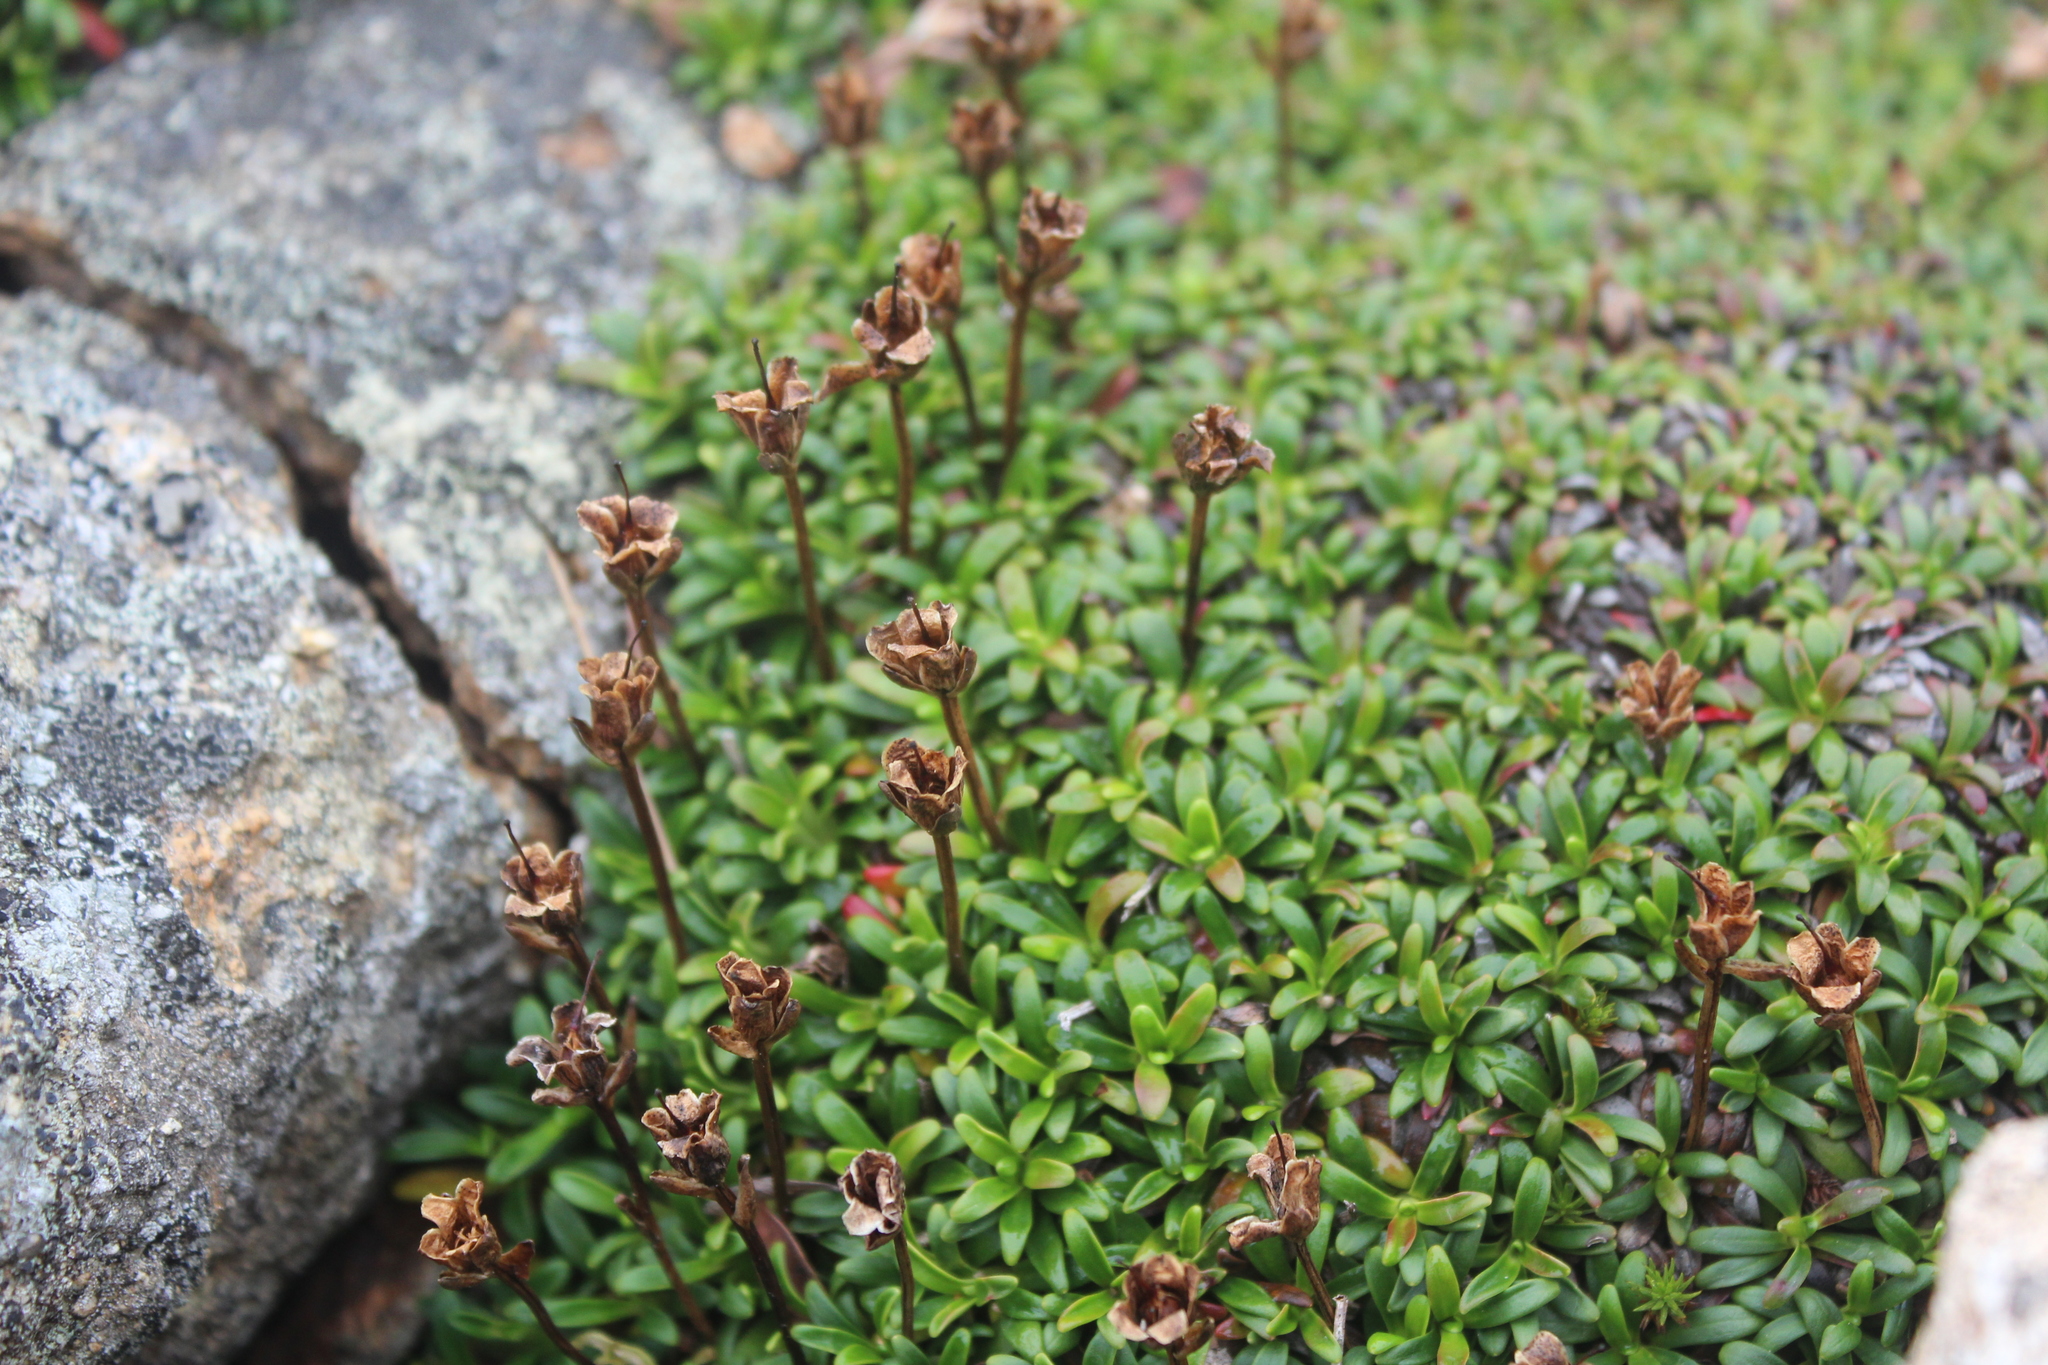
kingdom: Plantae
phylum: Tracheophyta
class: Magnoliopsida
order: Ericales
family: Diapensiaceae
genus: Diapensia
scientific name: Diapensia lapponica
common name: Diapensia
